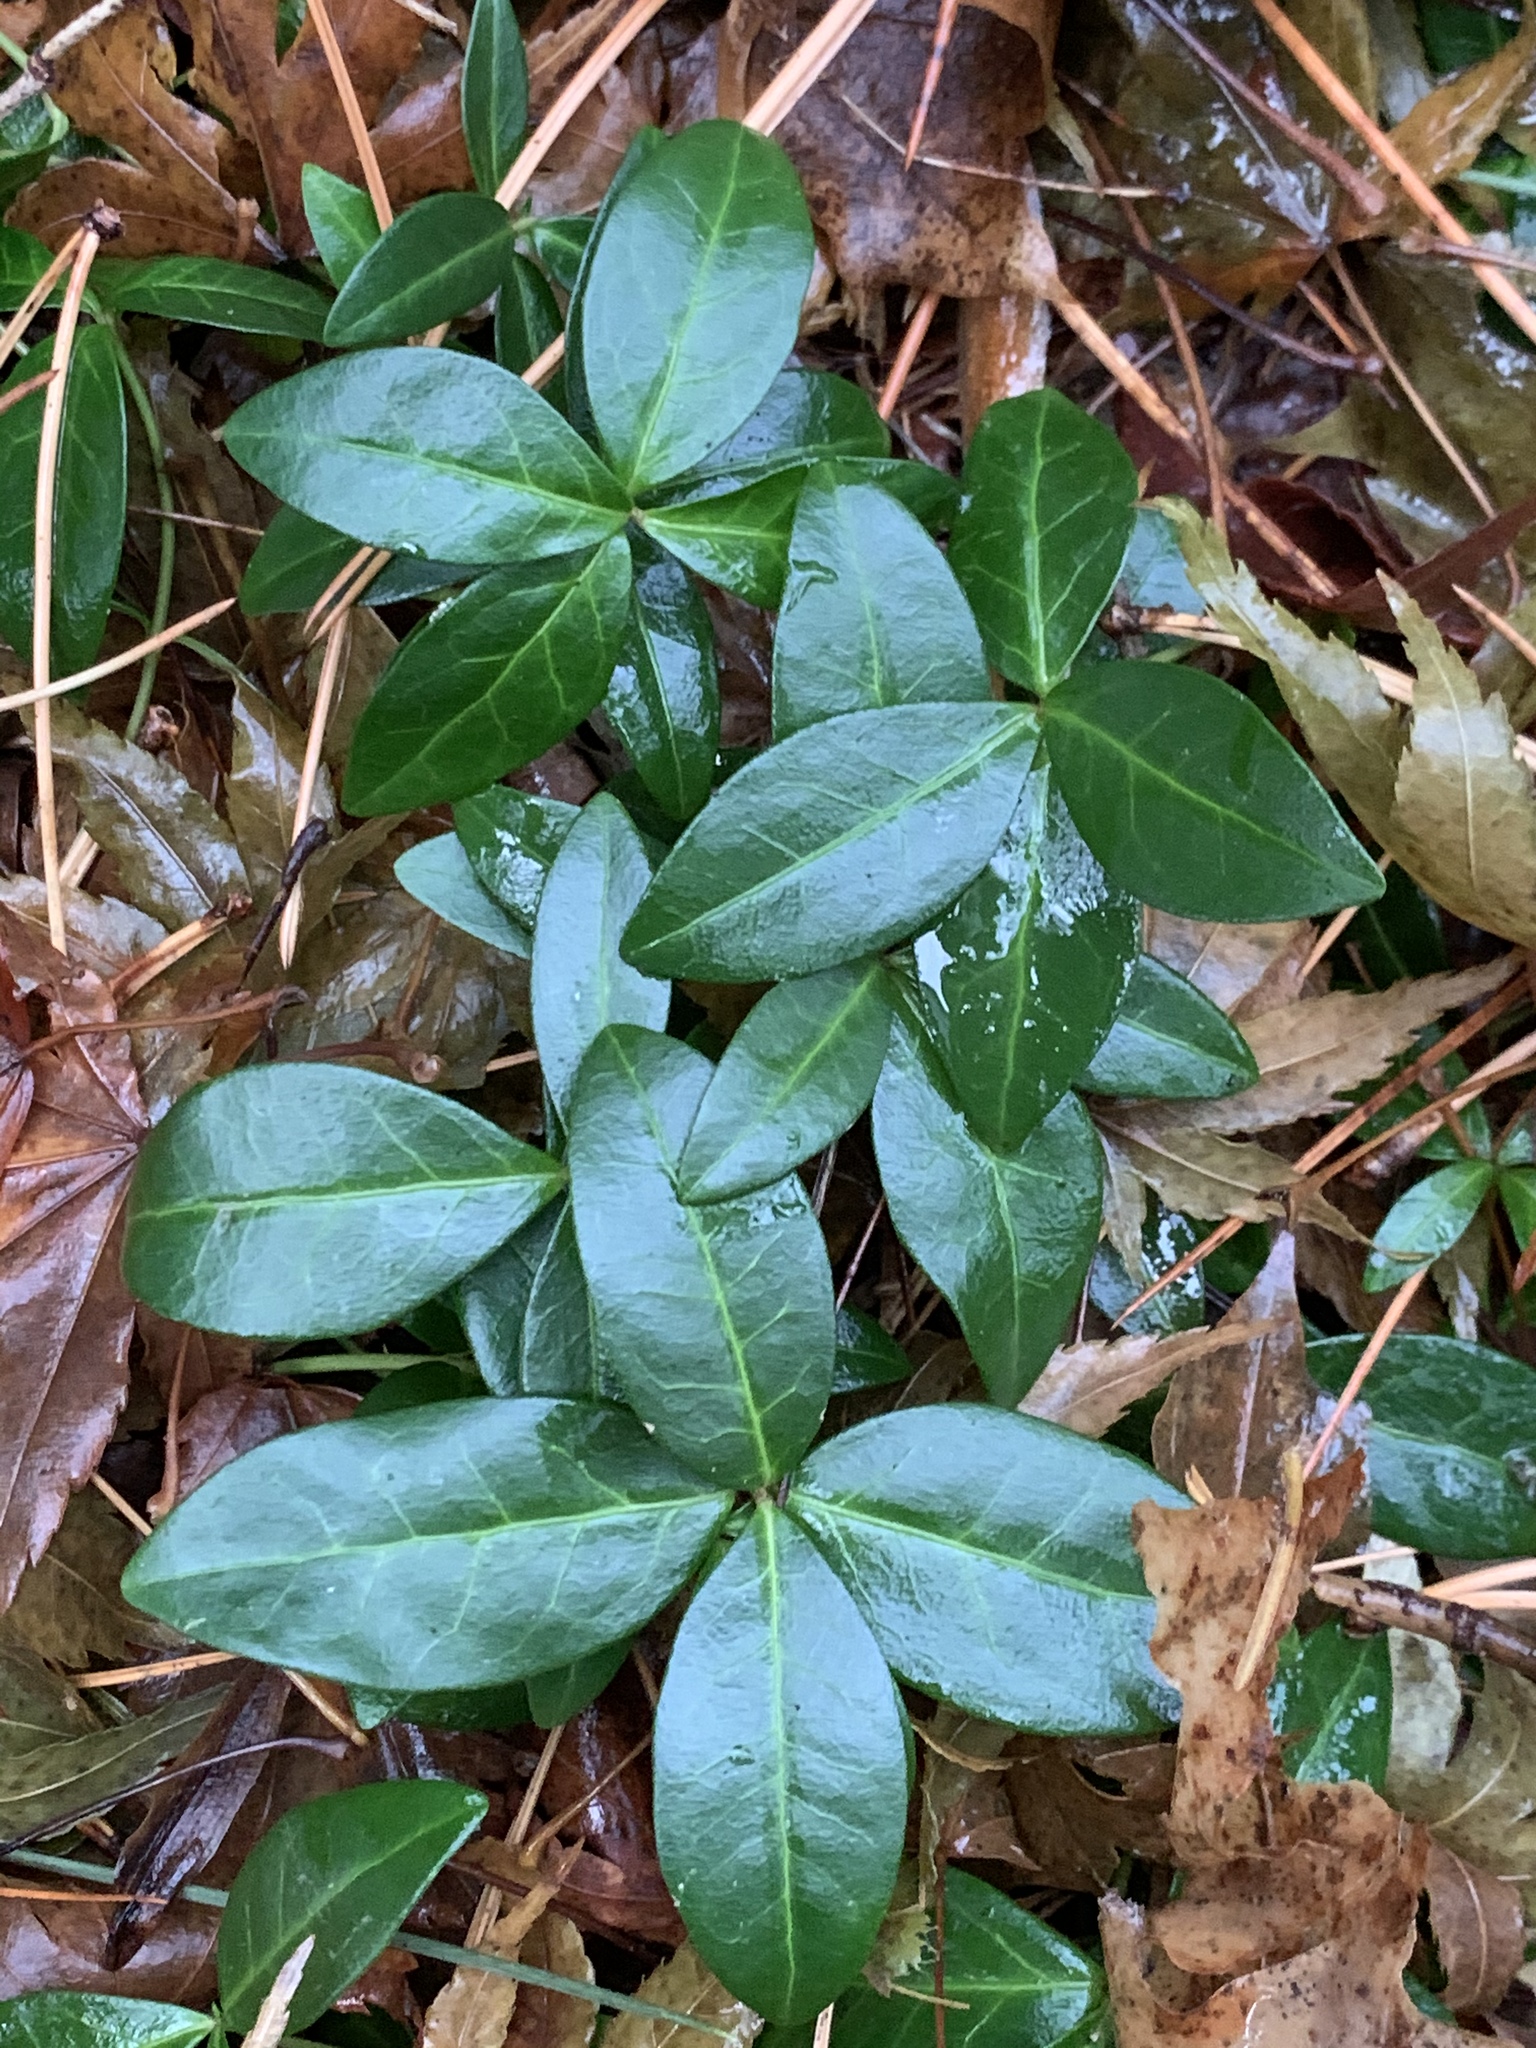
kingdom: Plantae
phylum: Tracheophyta
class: Magnoliopsida
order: Gentianales
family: Apocynaceae
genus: Vinca
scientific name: Vinca minor
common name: Lesser periwinkle
